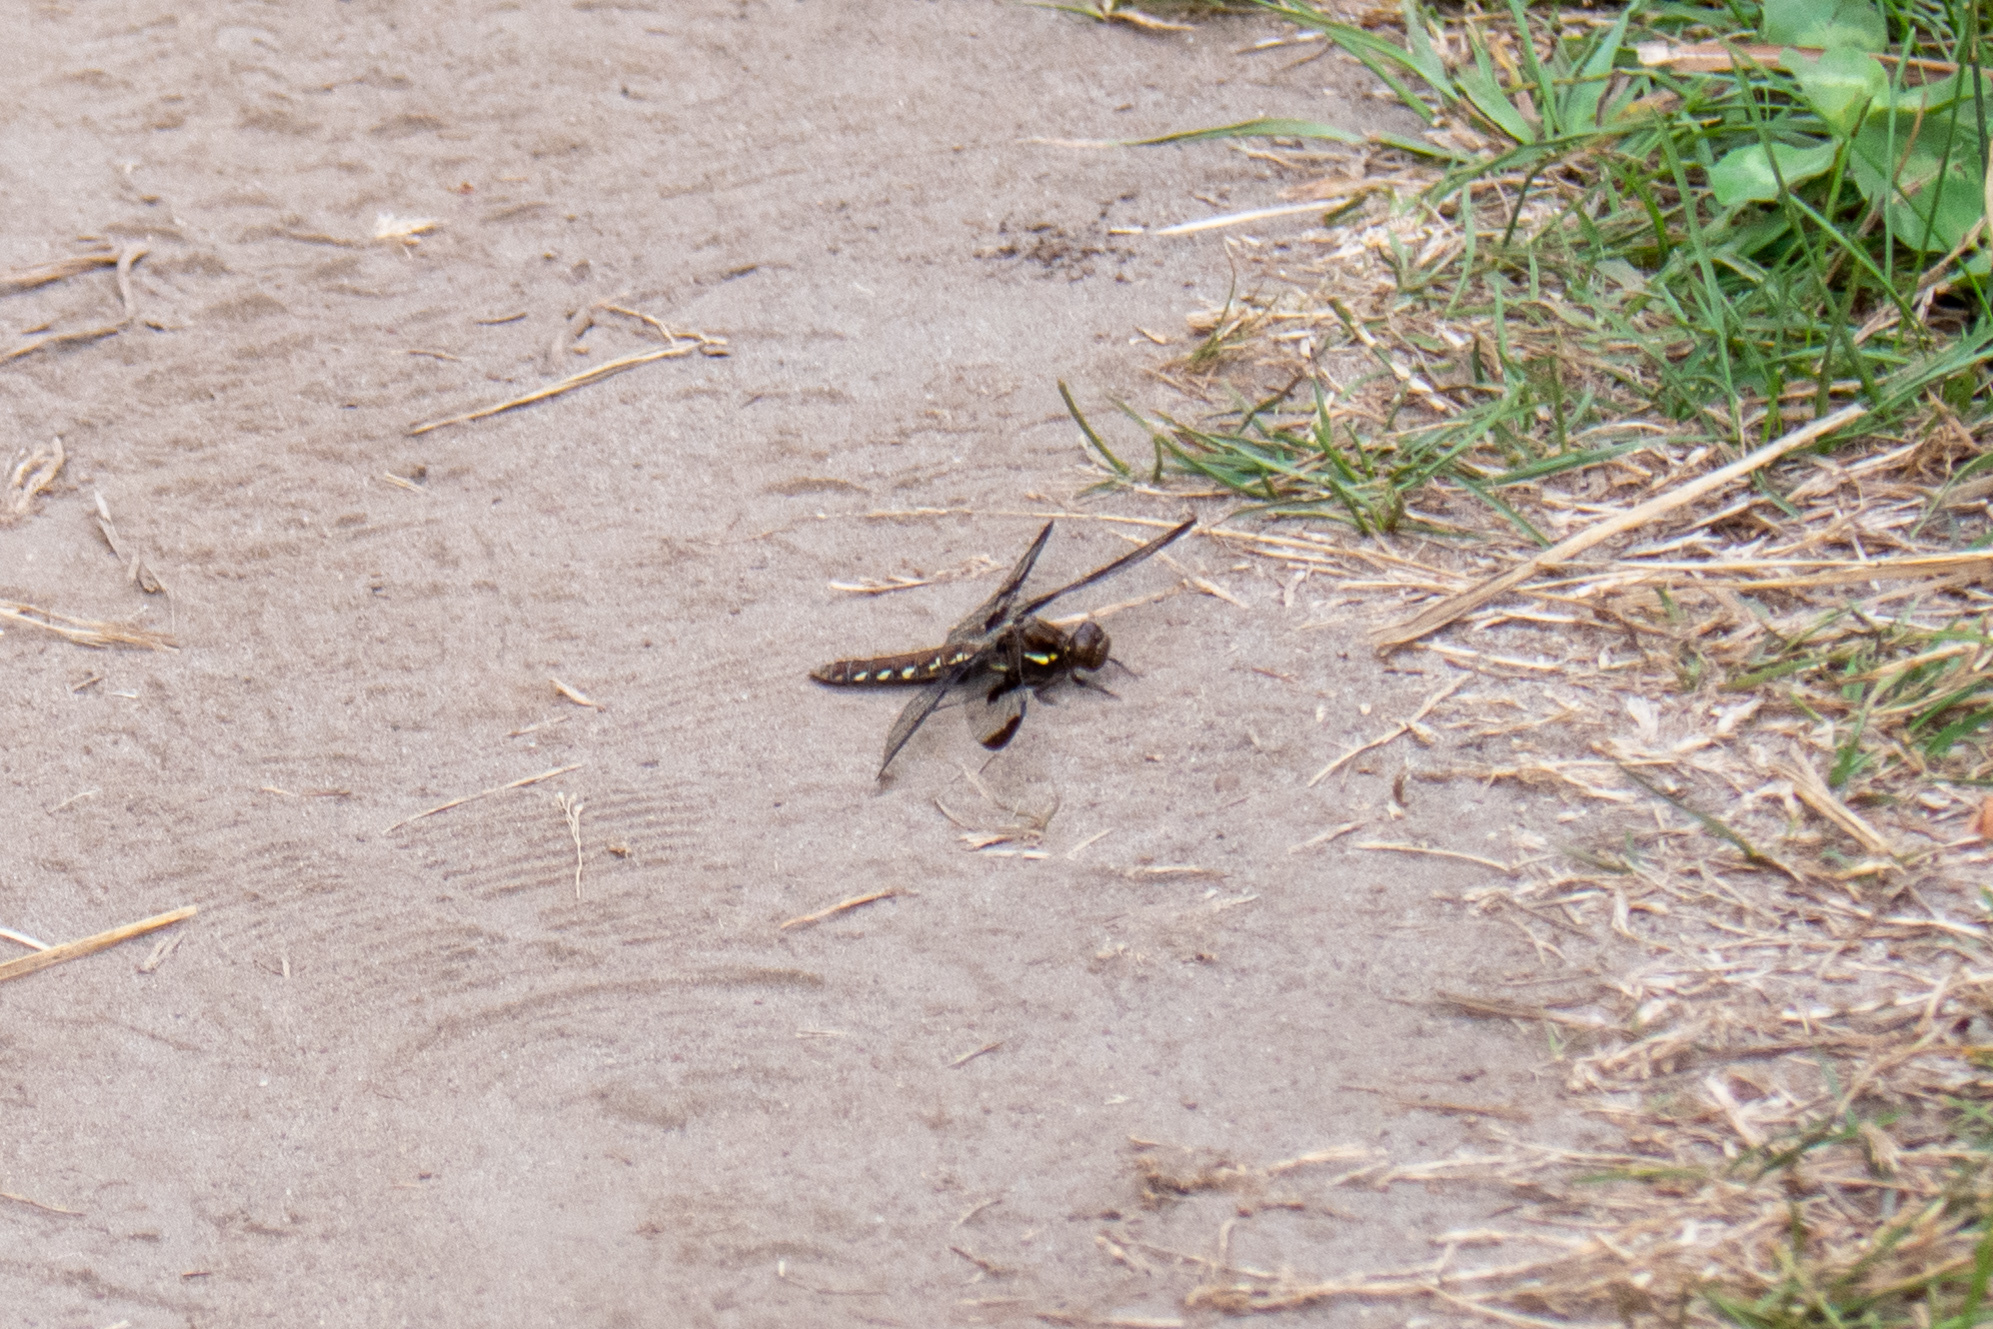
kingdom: Animalia
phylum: Arthropoda
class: Insecta
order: Odonata
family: Libellulidae
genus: Plathemis
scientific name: Plathemis lydia
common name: Common whitetail
